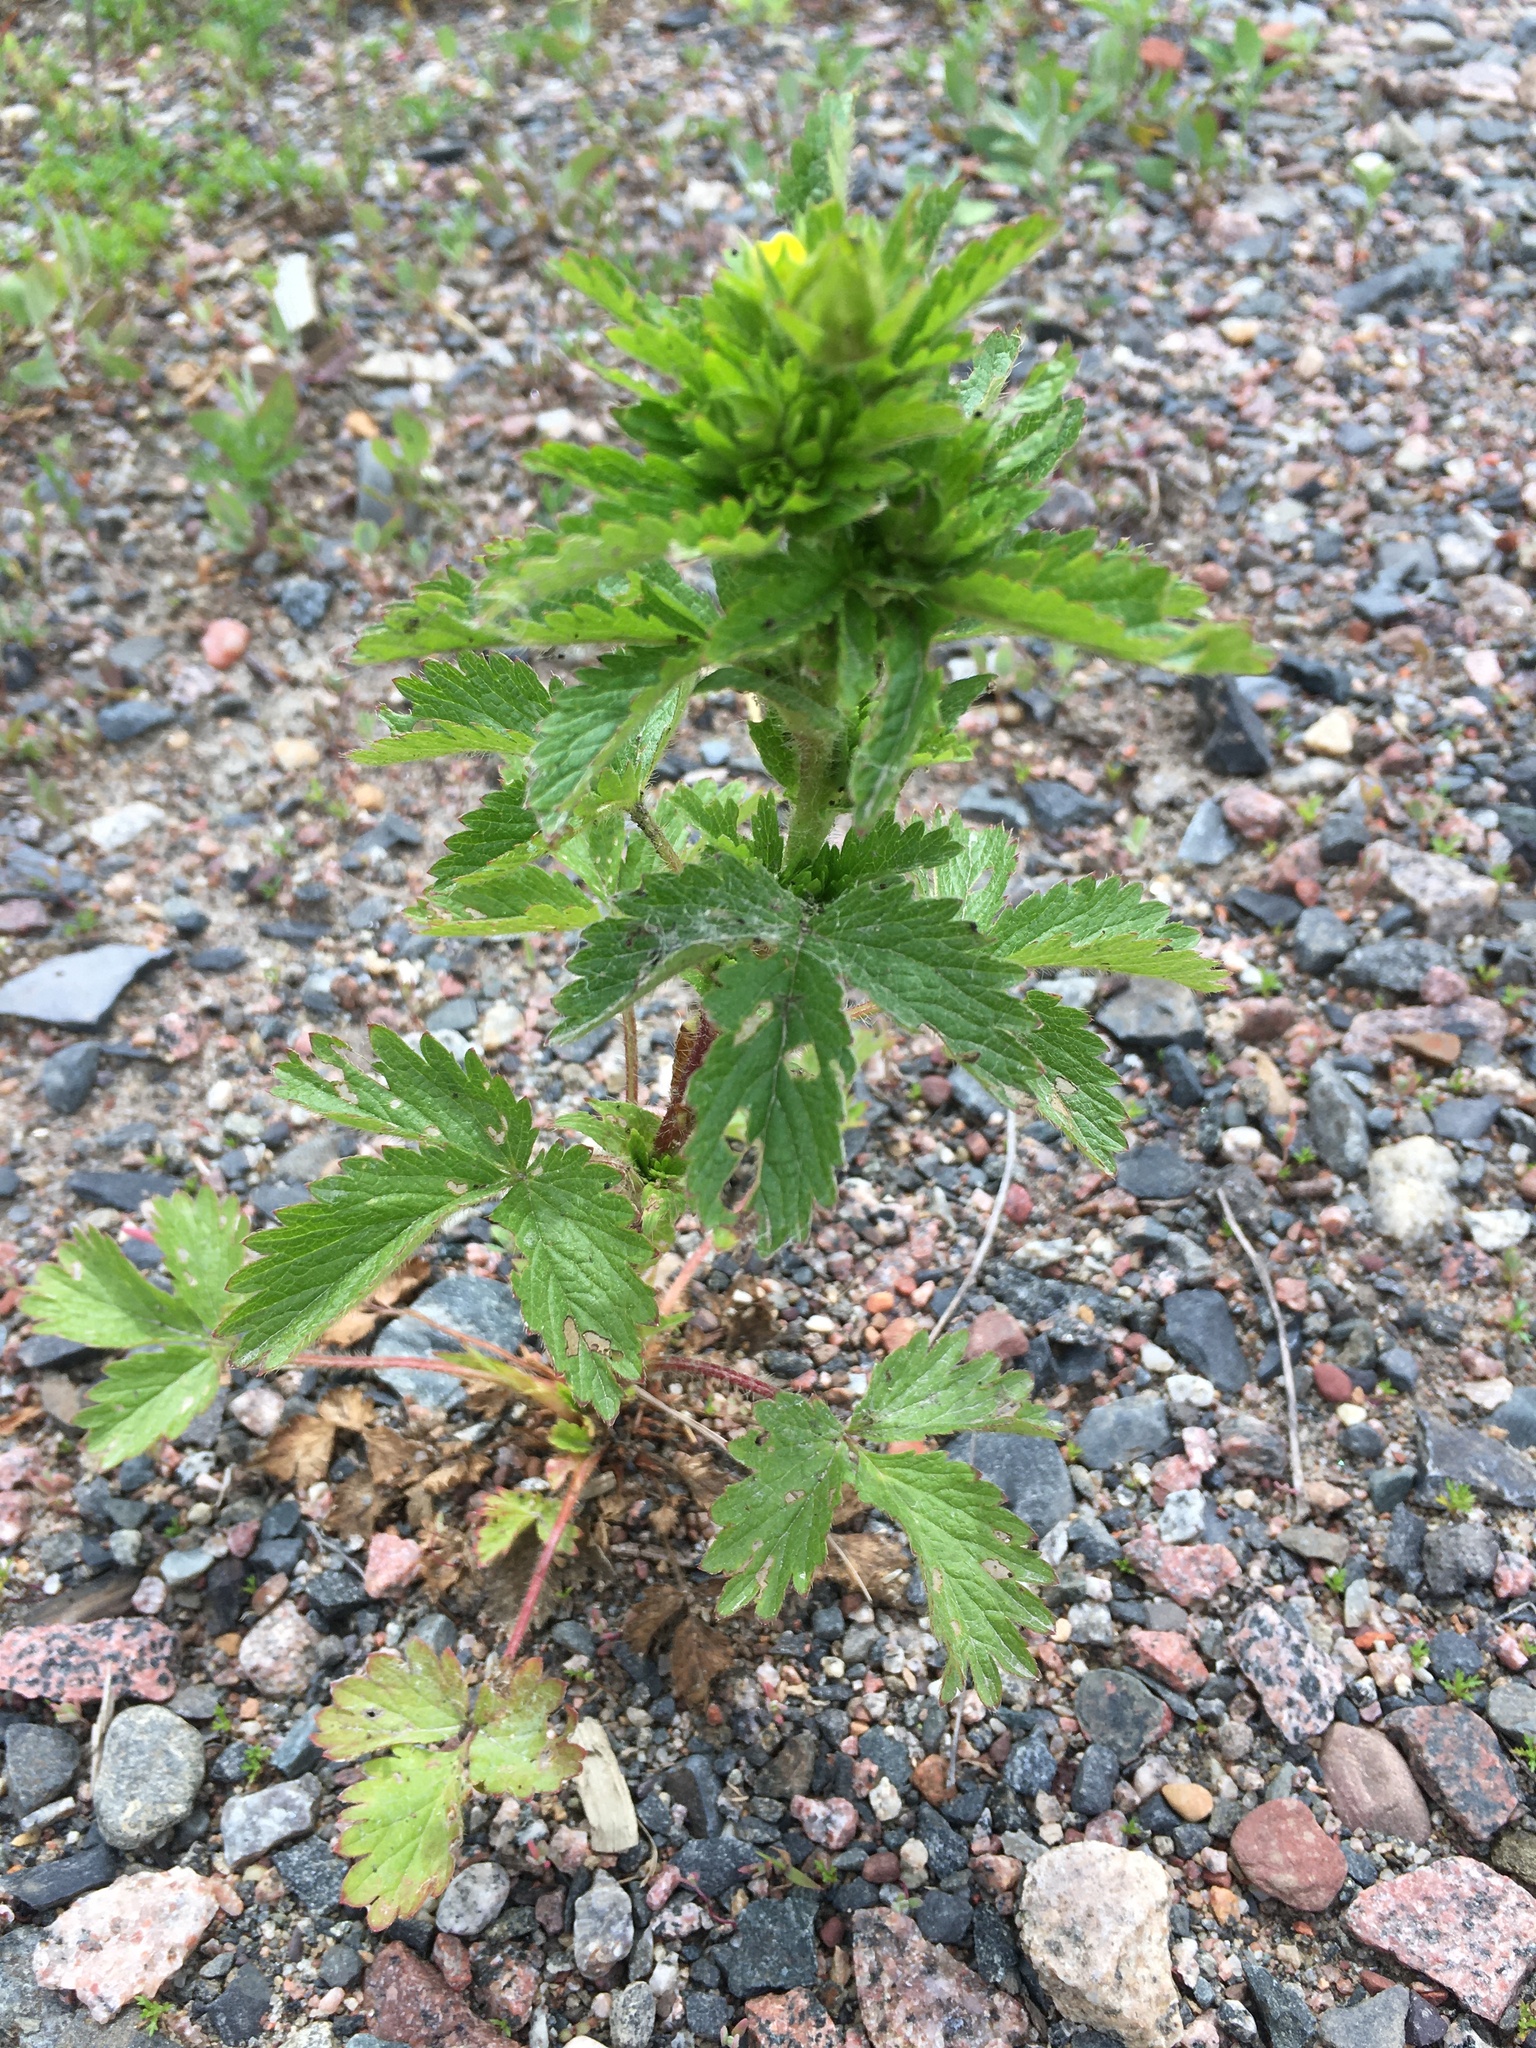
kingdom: Plantae
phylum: Tracheophyta
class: Magnoliopsida
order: Rosales
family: Rosaceae
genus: Potentilla
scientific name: Potentilla norvegica
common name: Ternate-leaved cinquefoil
